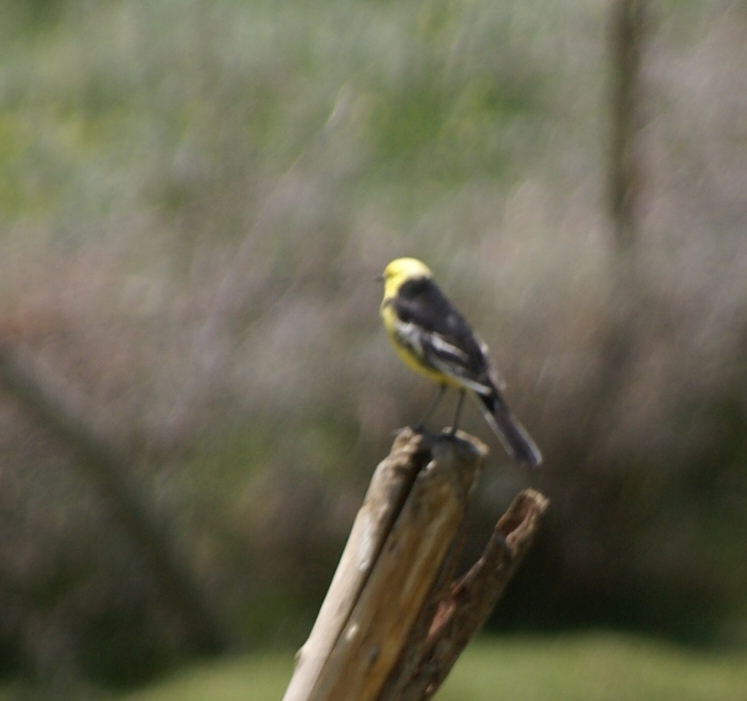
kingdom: Animalia
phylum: Chordata
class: Aves
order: Passeriformes
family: Motacillidae
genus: Motacilla
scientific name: Motacilla citreola
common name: Citrine wagtail
